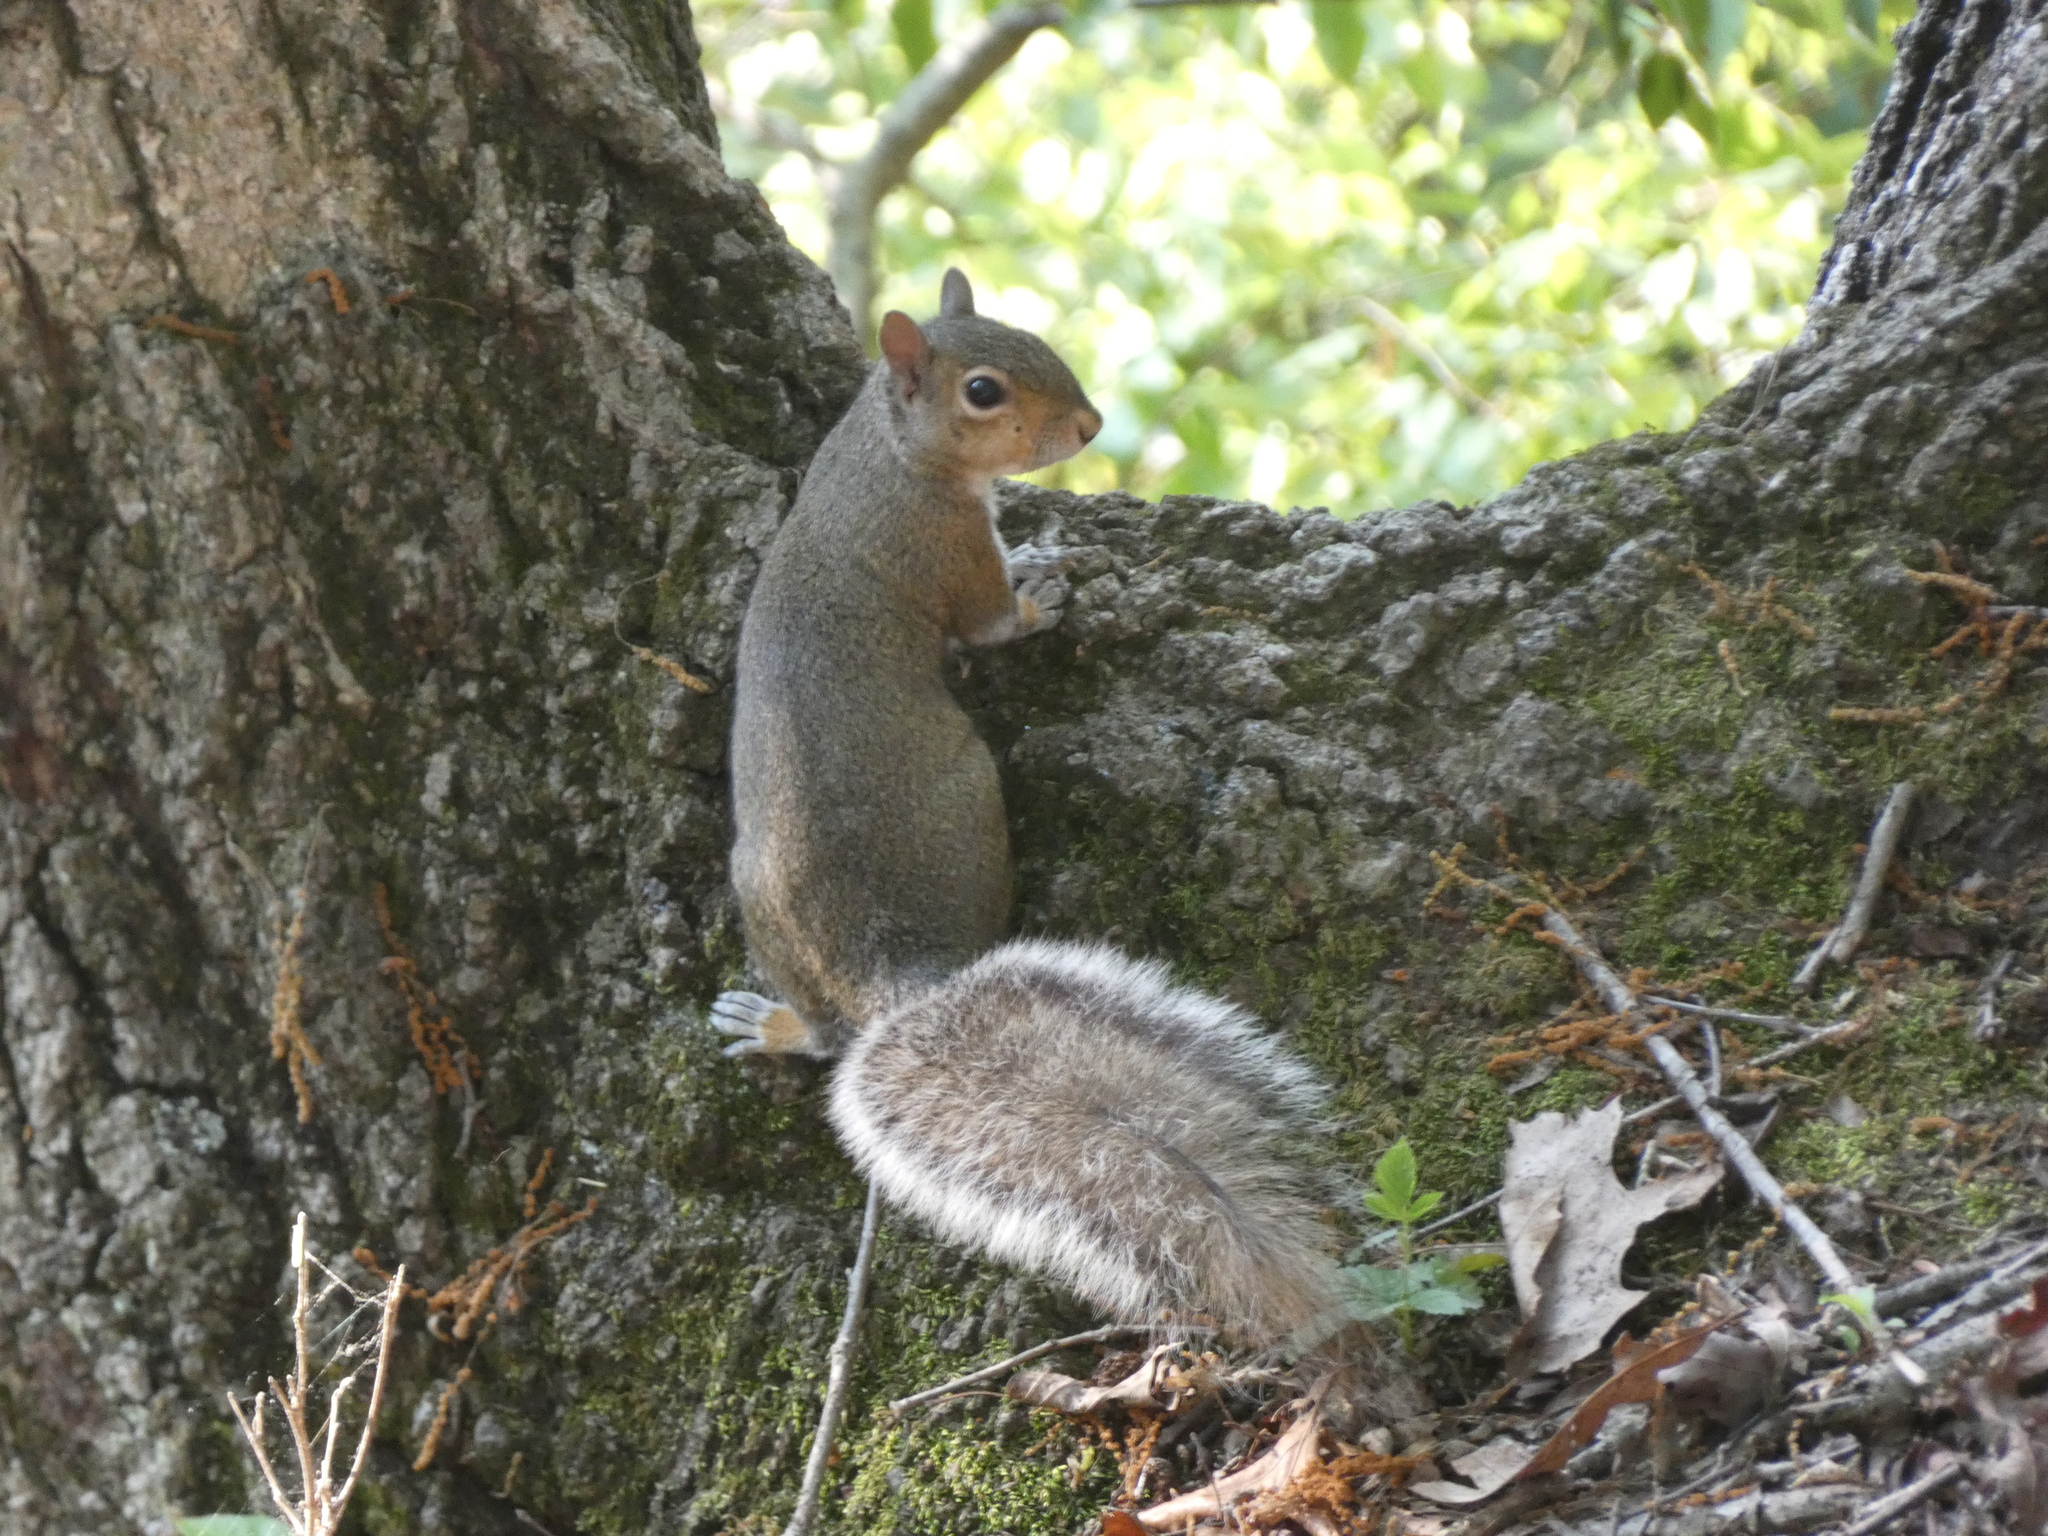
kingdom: Animalia
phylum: Chordata
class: Mammalia
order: Rodentia
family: Sciuridae
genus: Sciurus
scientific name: Sciurus carolinensis
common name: Eastern gray squirrel
